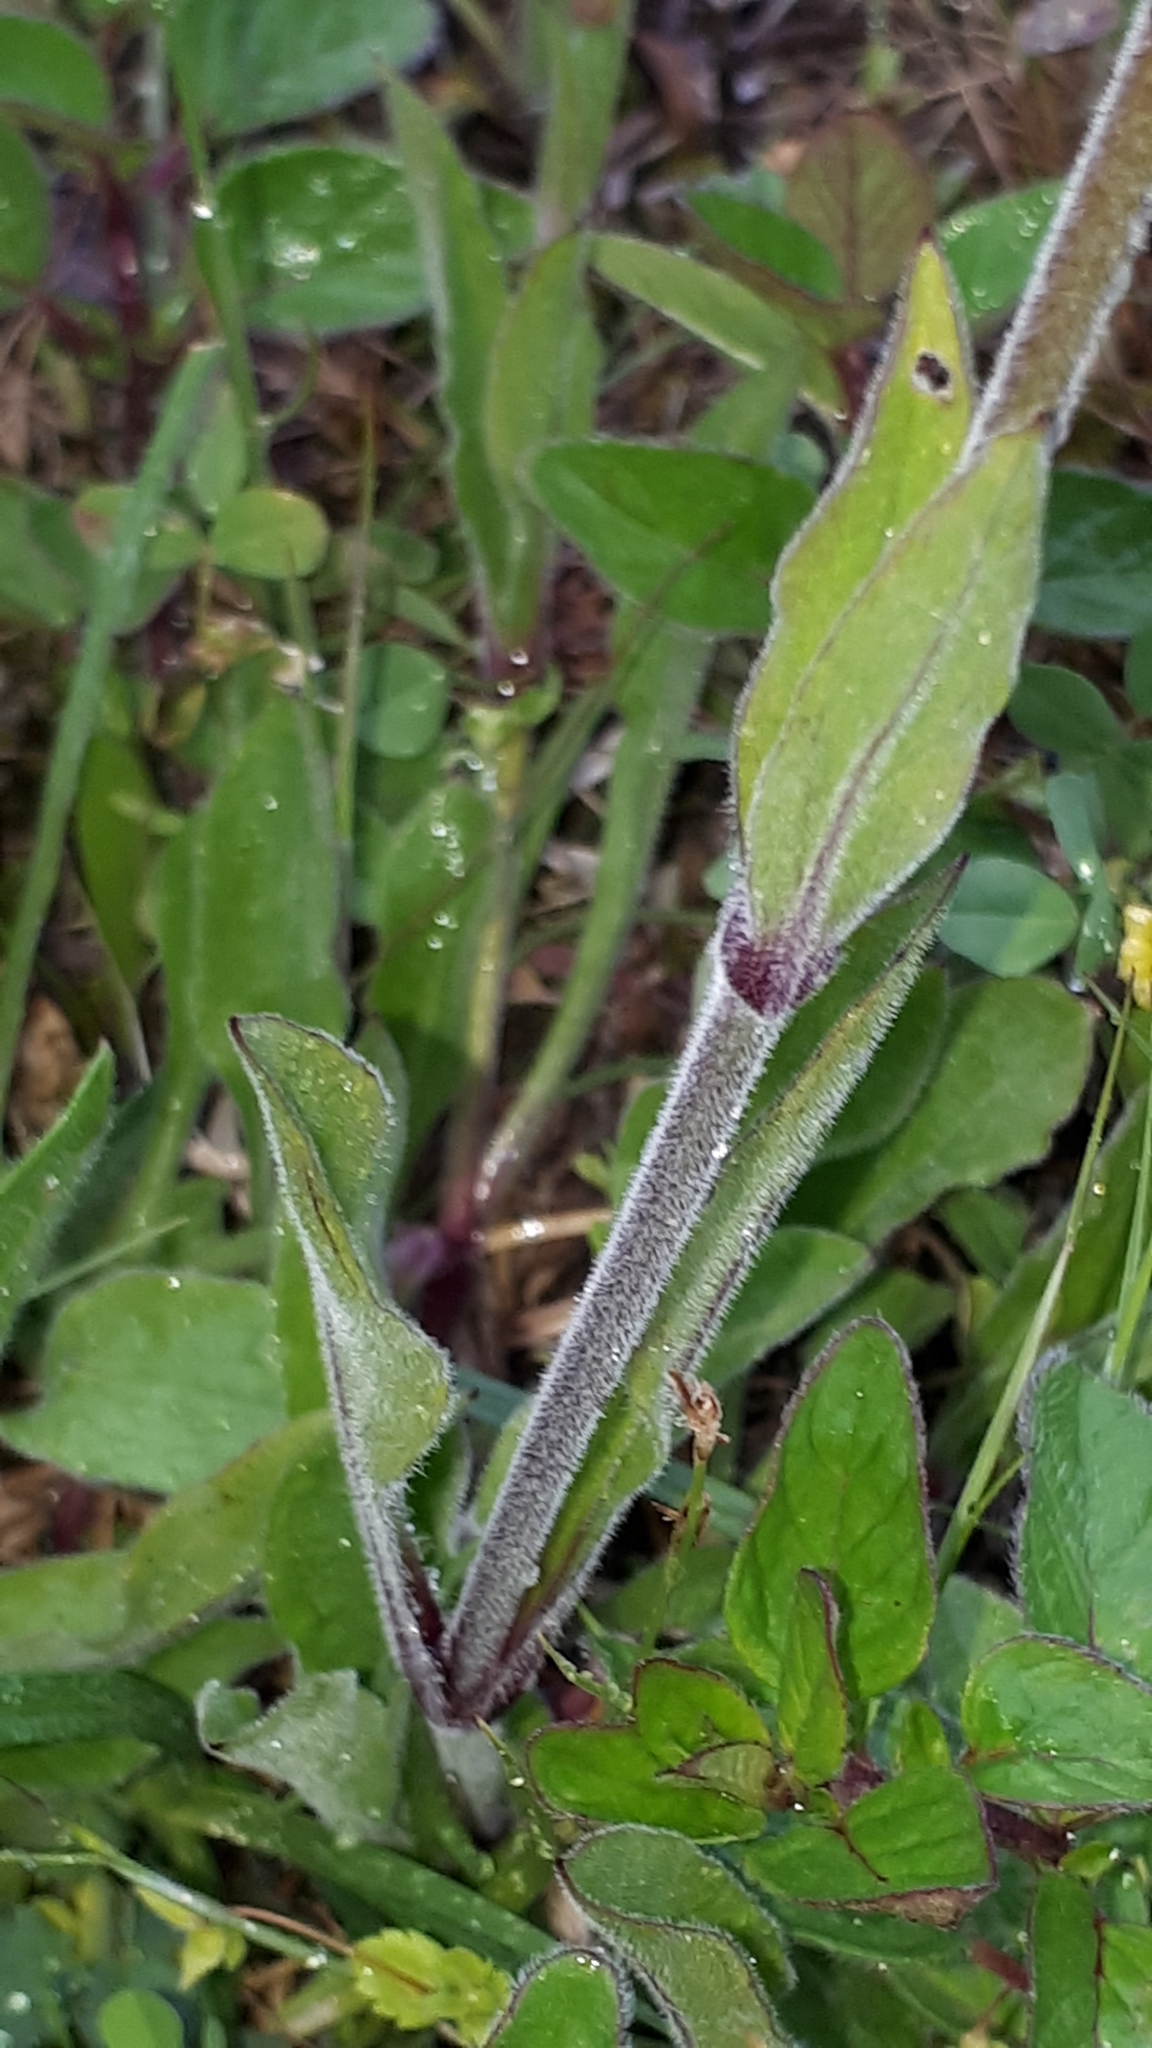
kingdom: Plantae
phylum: Tracheophyta
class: Magnoliopsida
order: Caryophyllales
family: Caryophyllaceae
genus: Silene
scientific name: Silene nutans
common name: Nottingham catchfly
